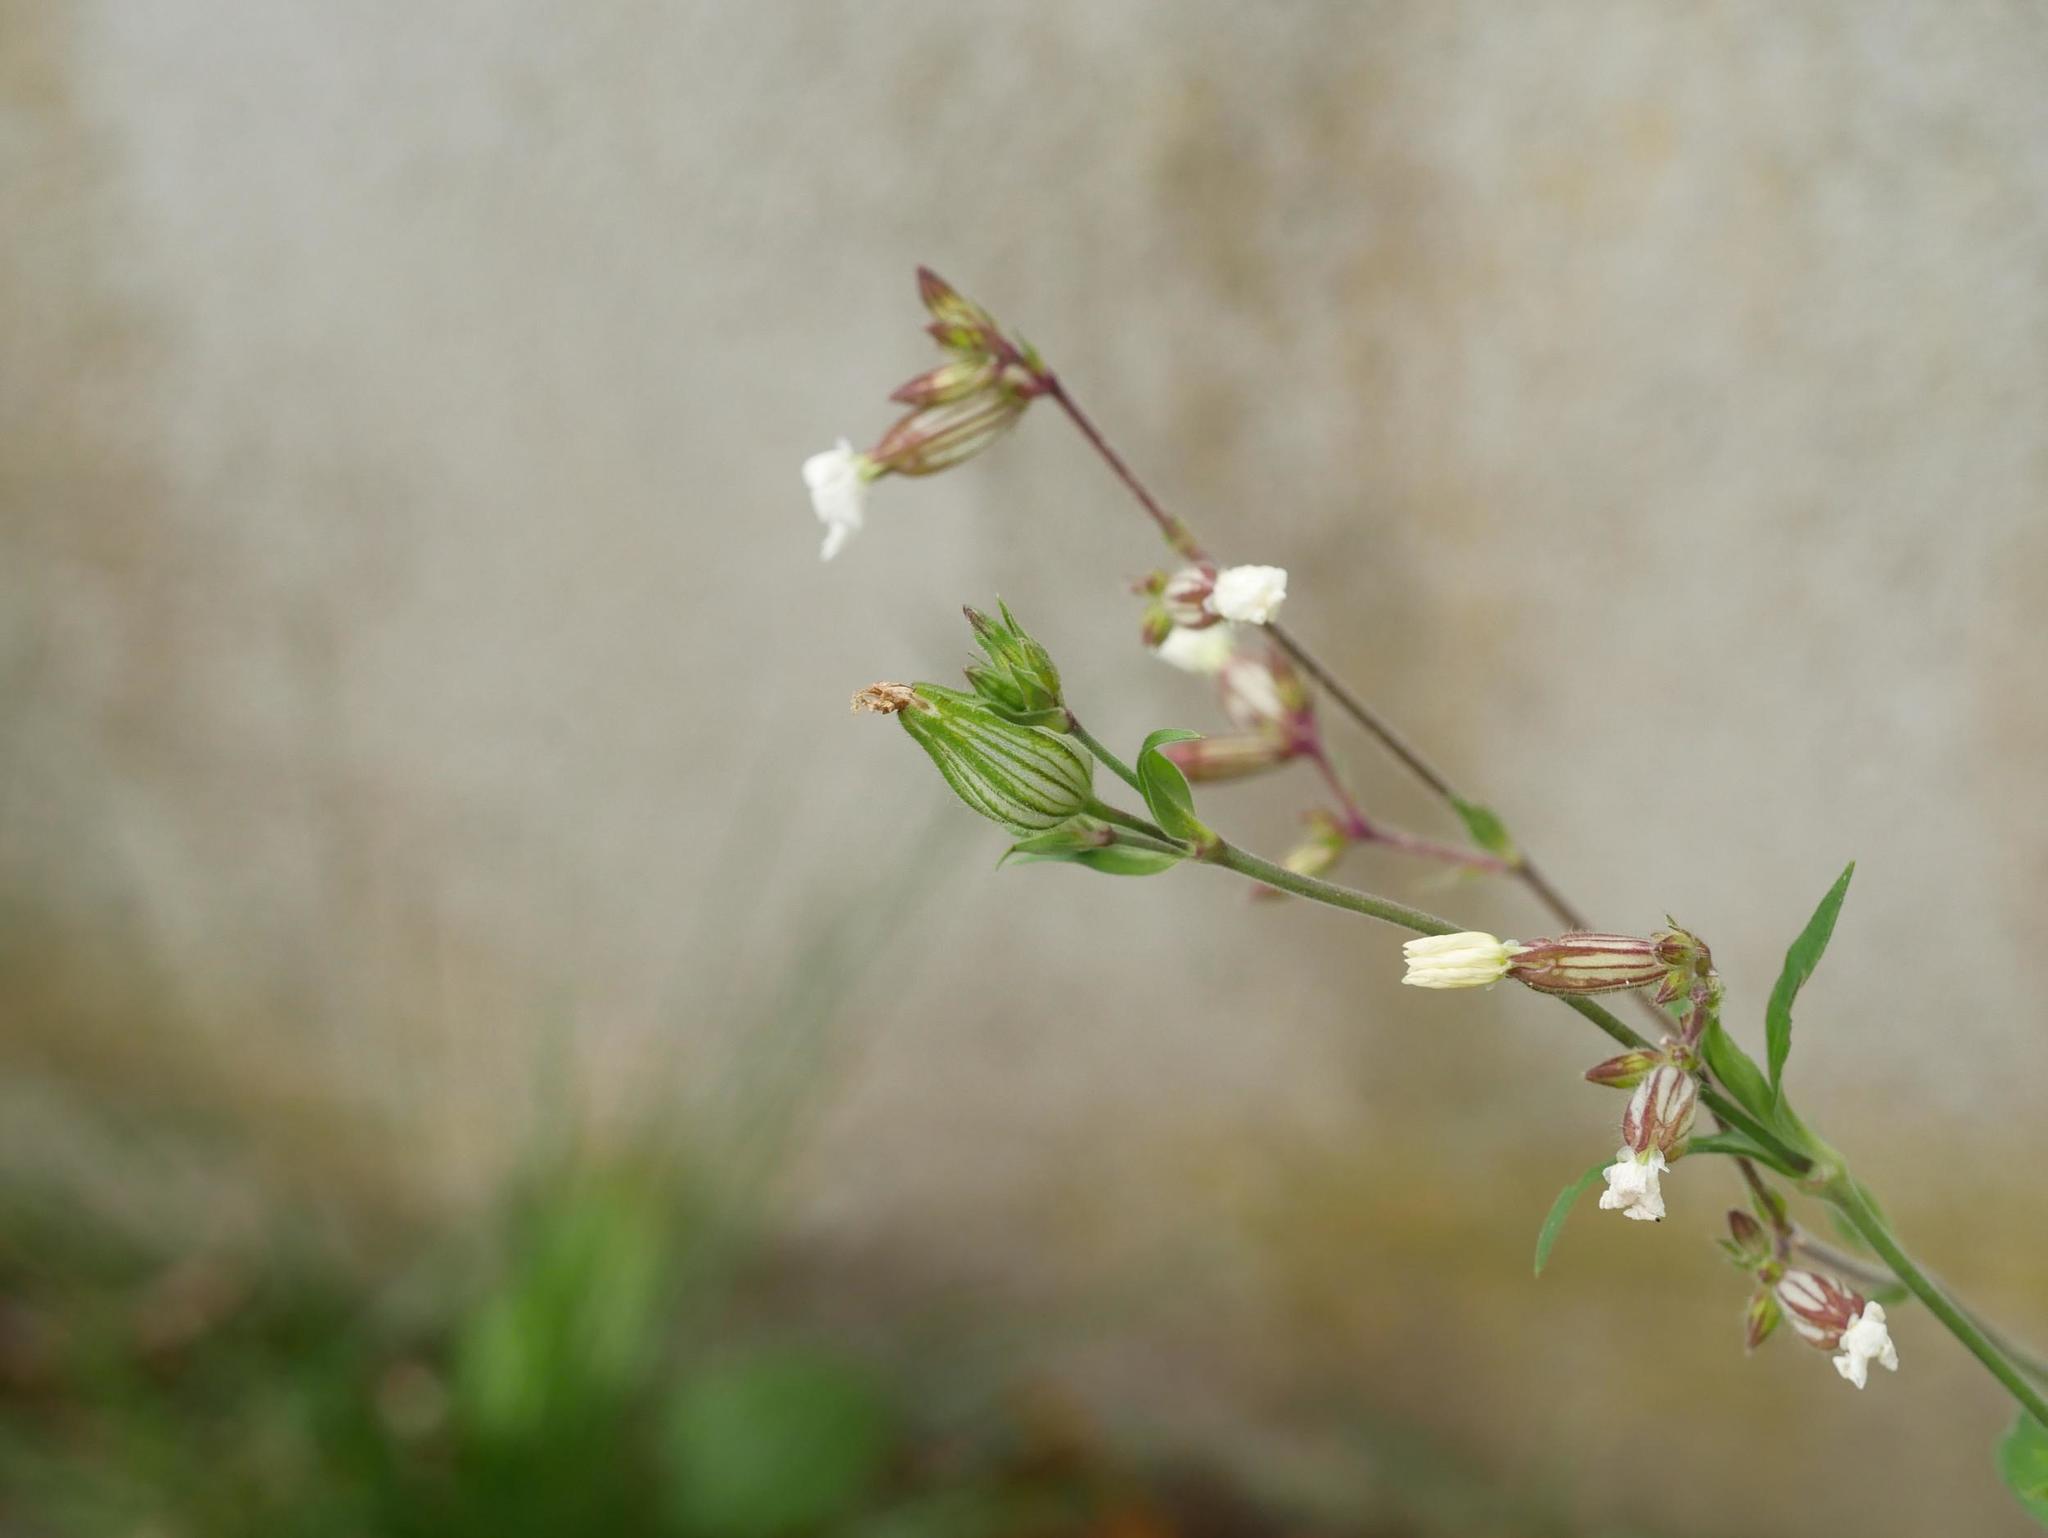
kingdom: Plantae
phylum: Tracheophyta
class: Magnoliopsida
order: Caryophyllales
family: Caryophyllaceae
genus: Silene
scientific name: Silene latifolia
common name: White campion
